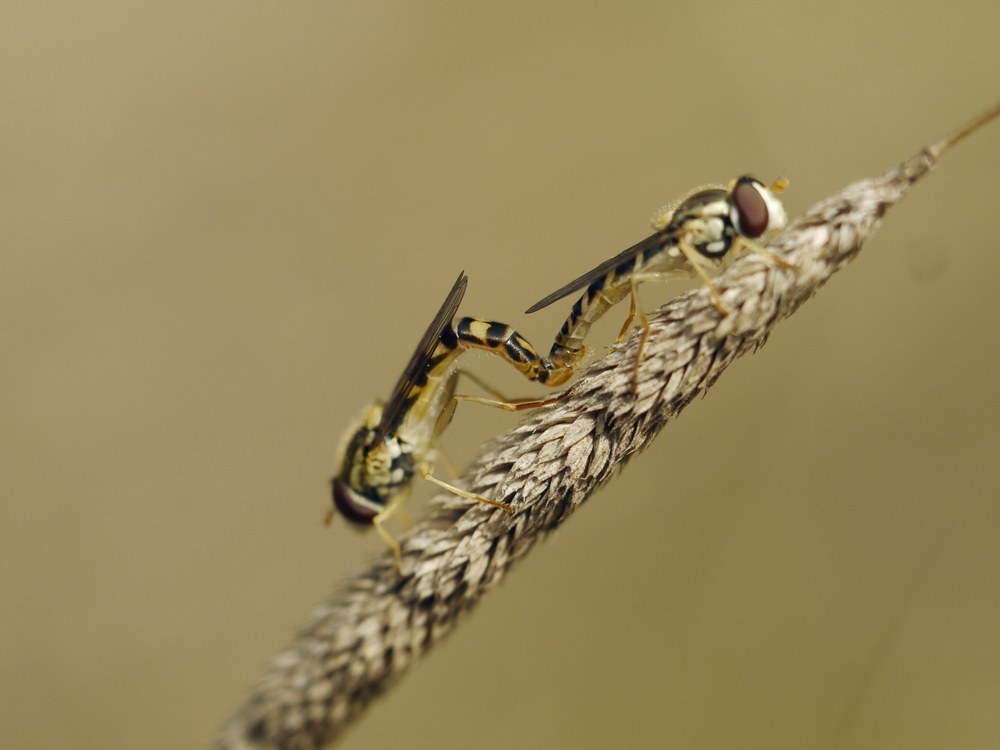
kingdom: Animalia
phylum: Arthropoda
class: Insecta
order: Diptera
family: Syrphidae
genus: Sphaerophoria
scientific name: Sphaerophoria scripta
